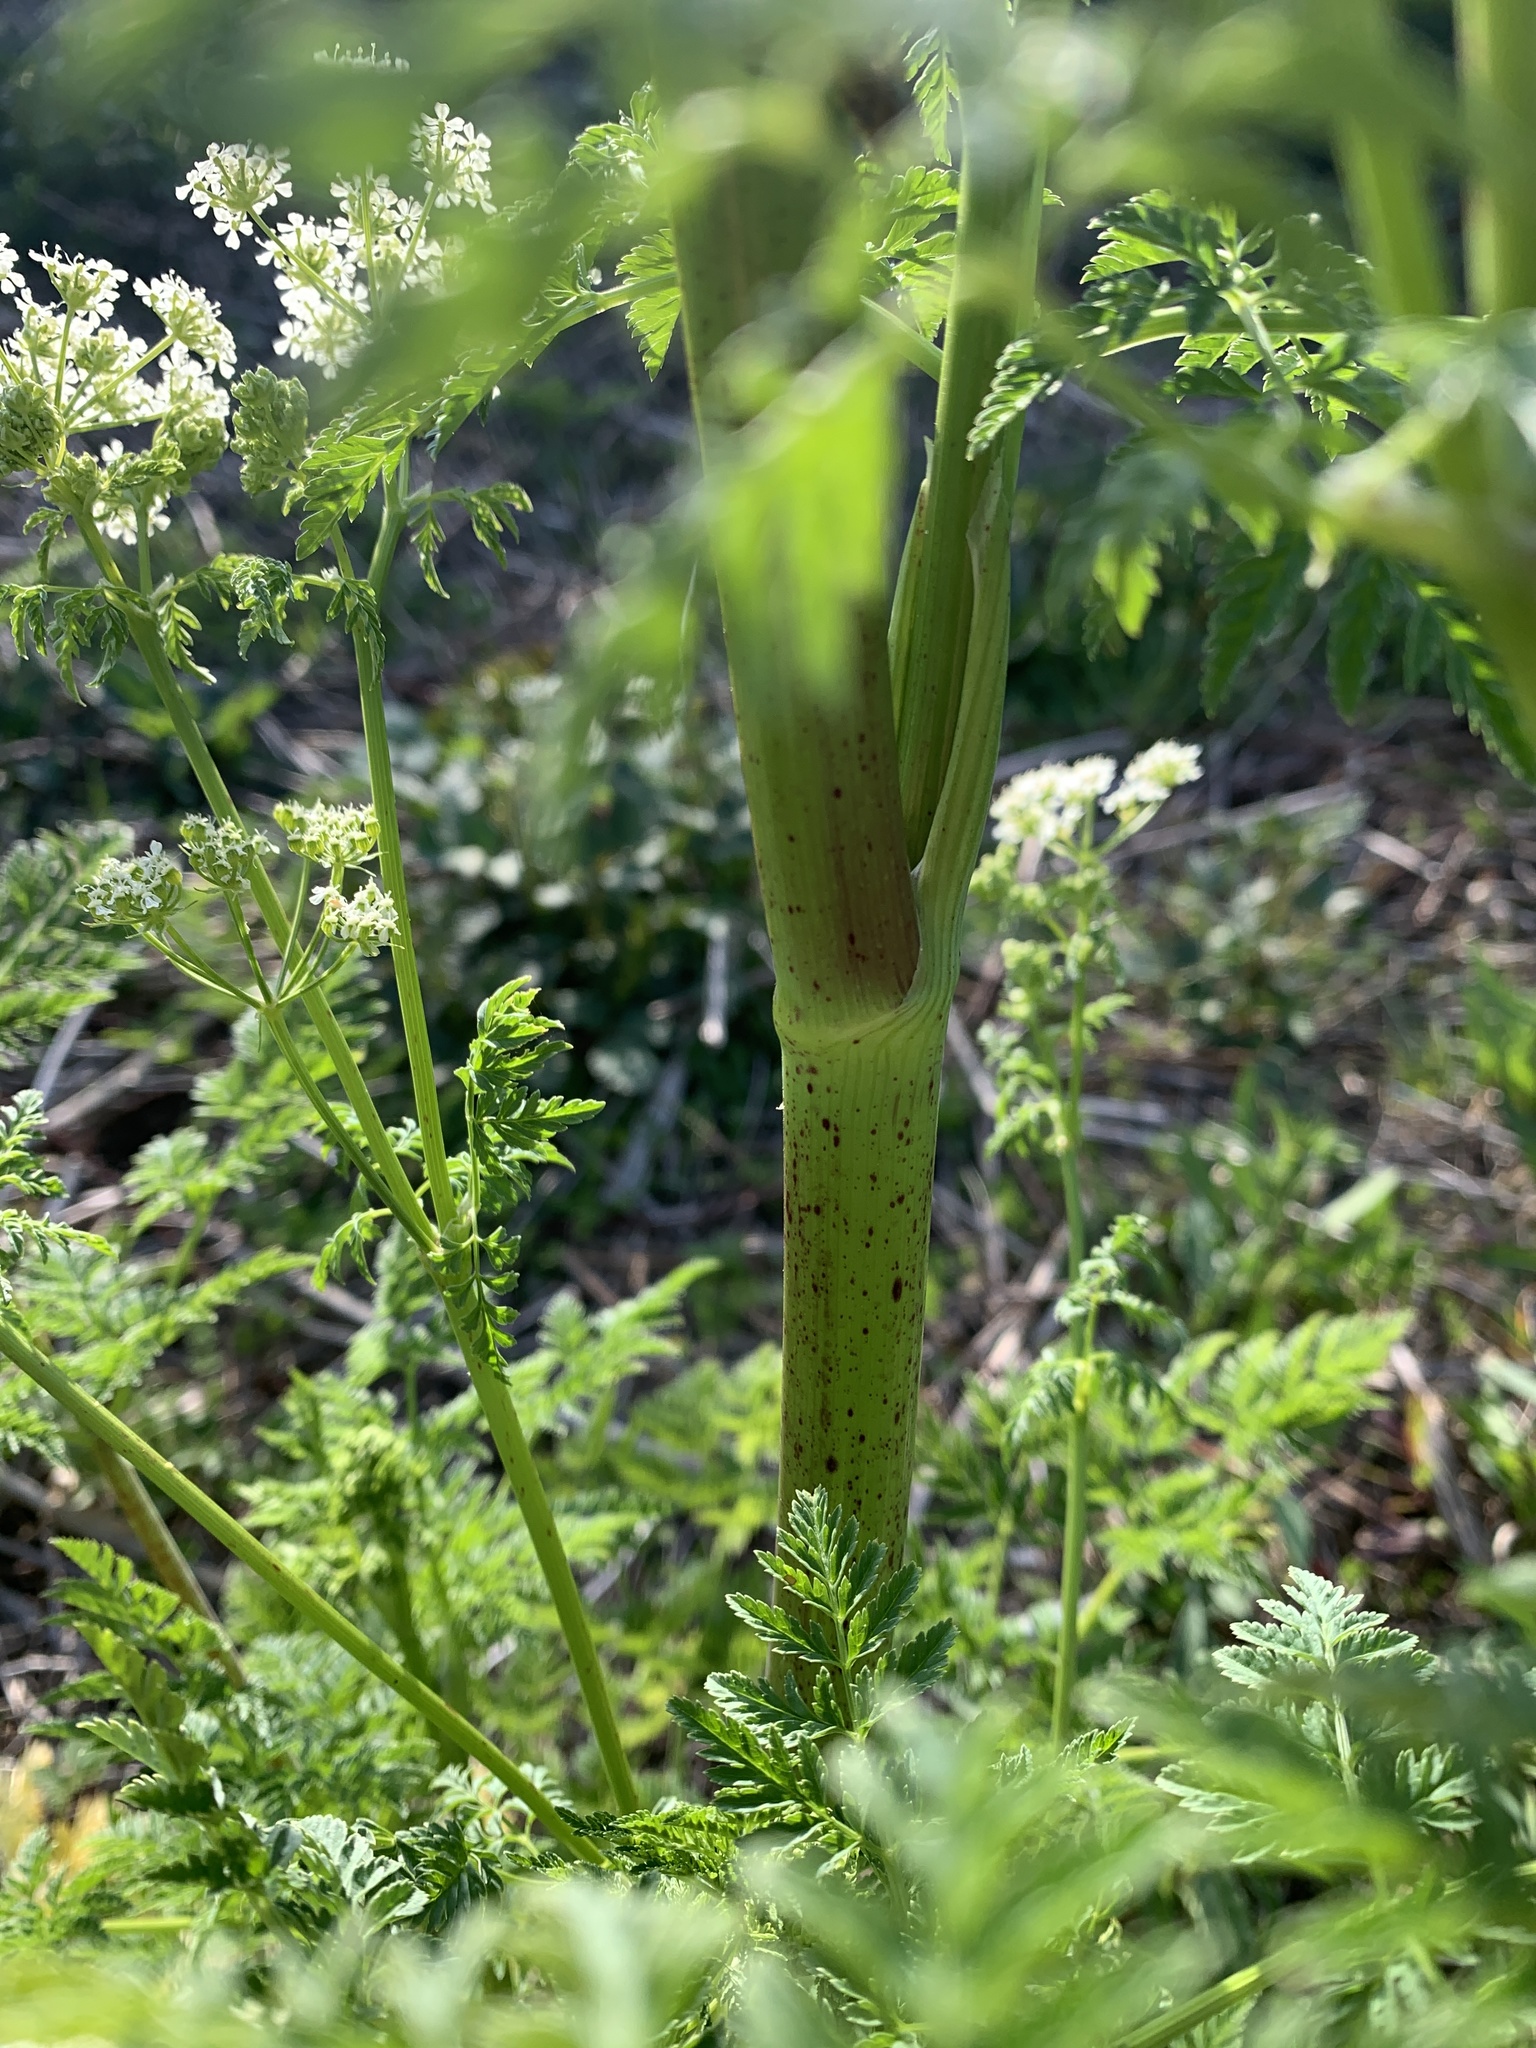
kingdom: Plantae
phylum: Tracheophyta
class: Magnoliopsida
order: Apiales
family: Apiaceae
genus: Conium
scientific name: Conium maculatum
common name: Hemlock
